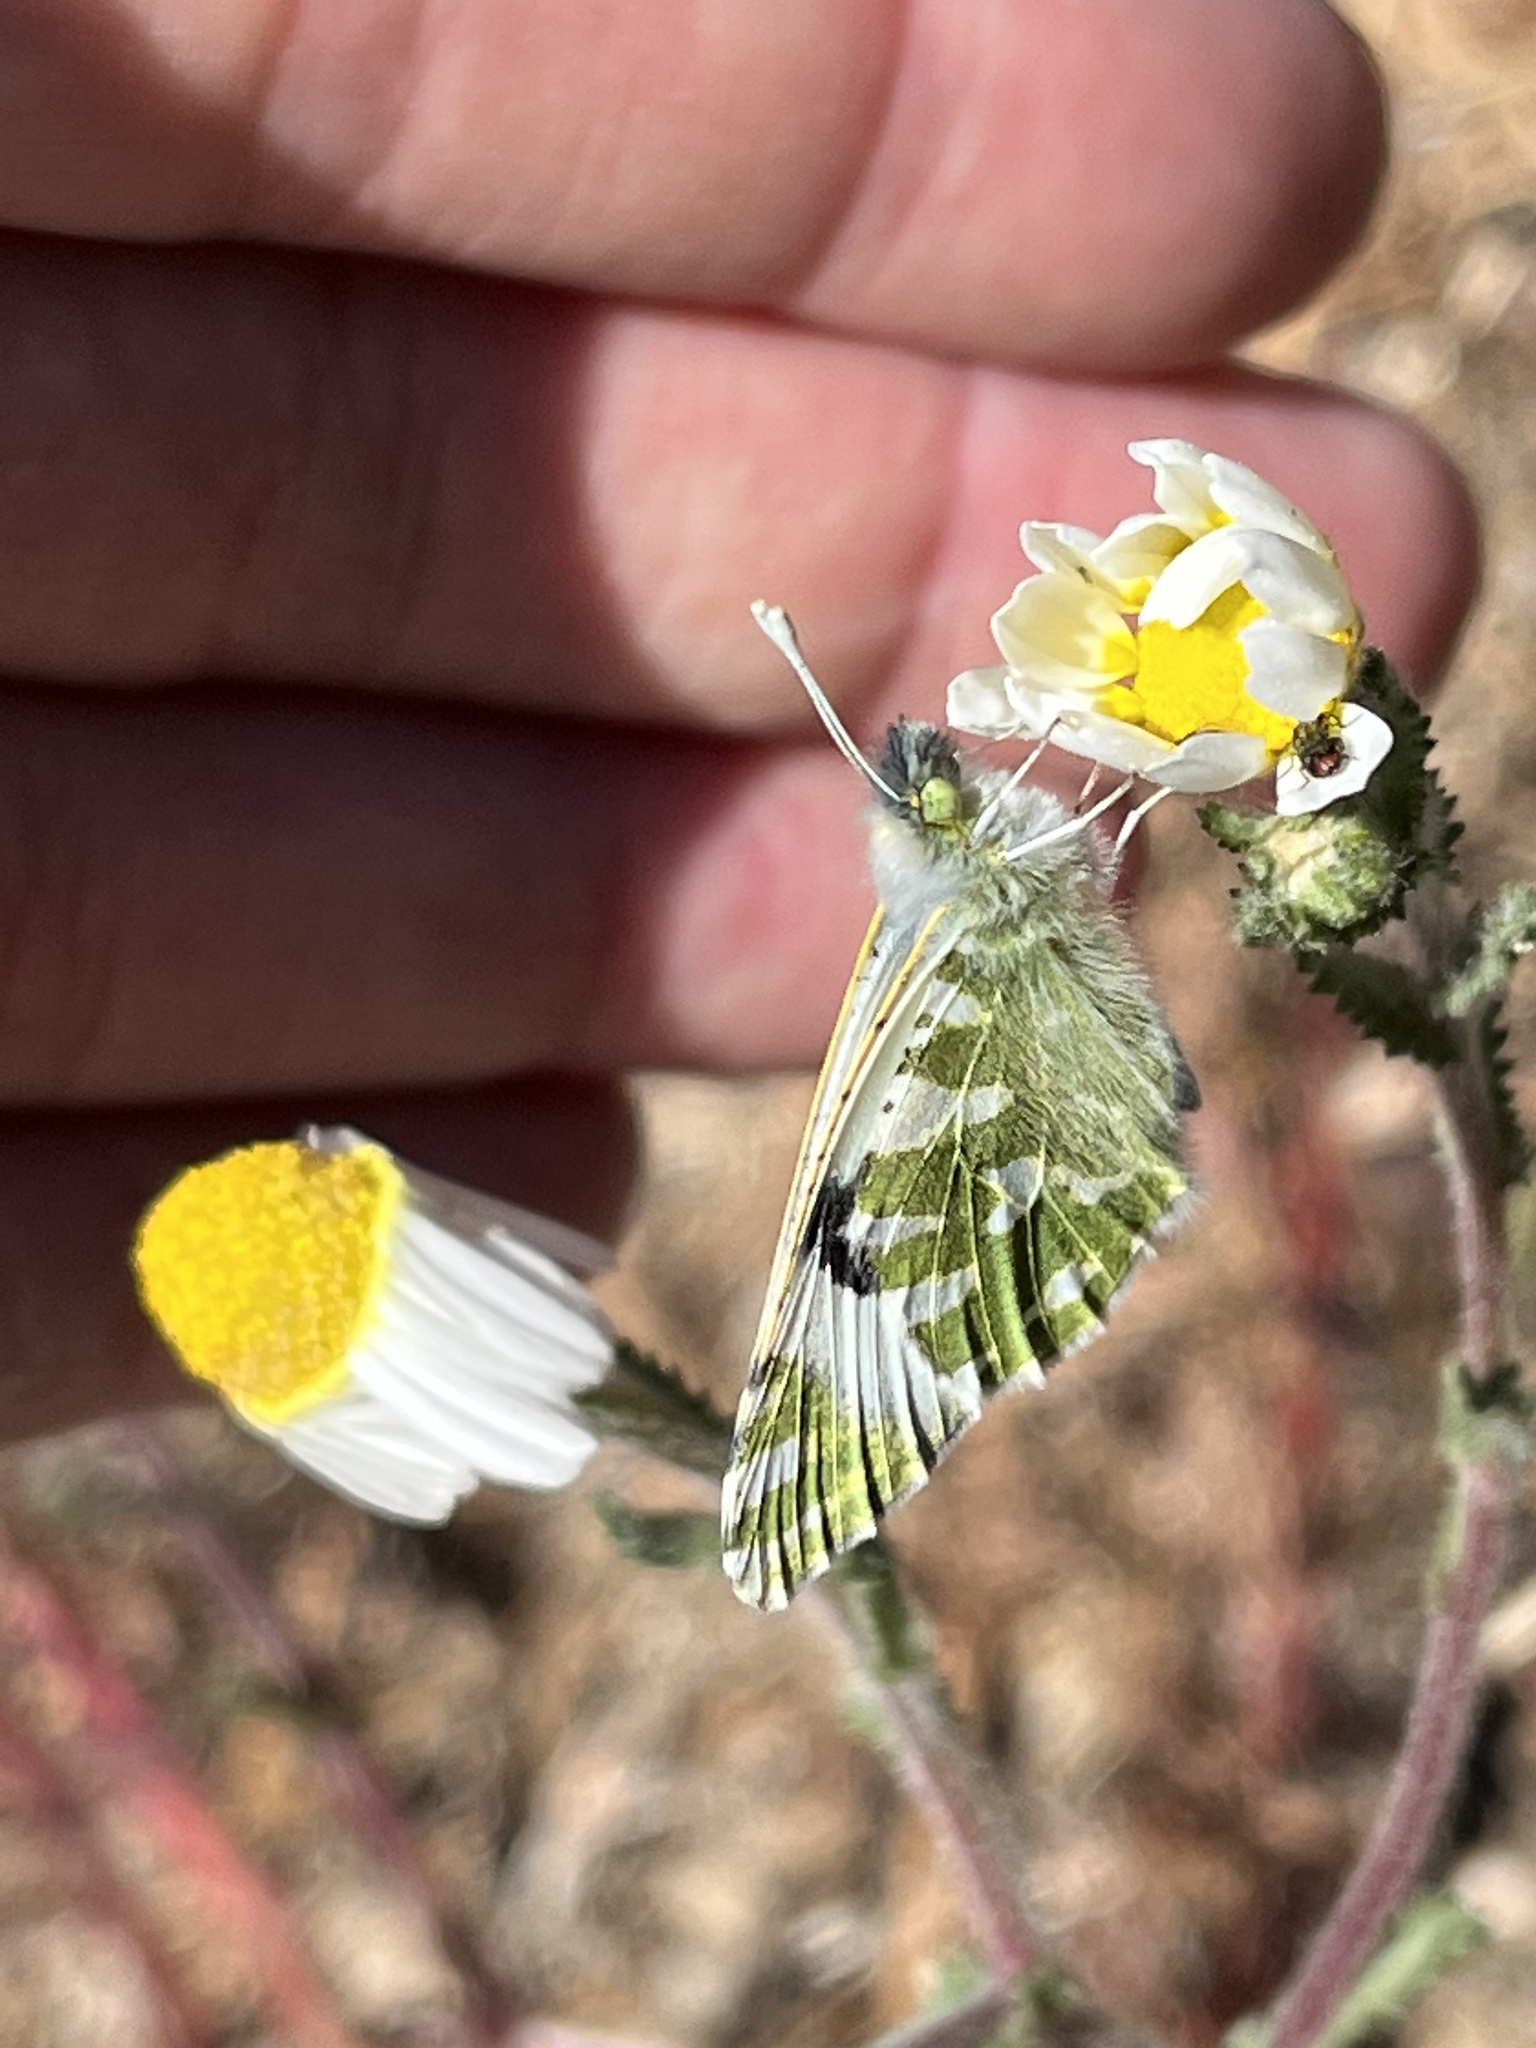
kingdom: Animalia
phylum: Arthropoda
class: Insecta
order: Lepidoptera
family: Pieridae
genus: Euchloe
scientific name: Euchloe belemia
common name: Green-striped white
